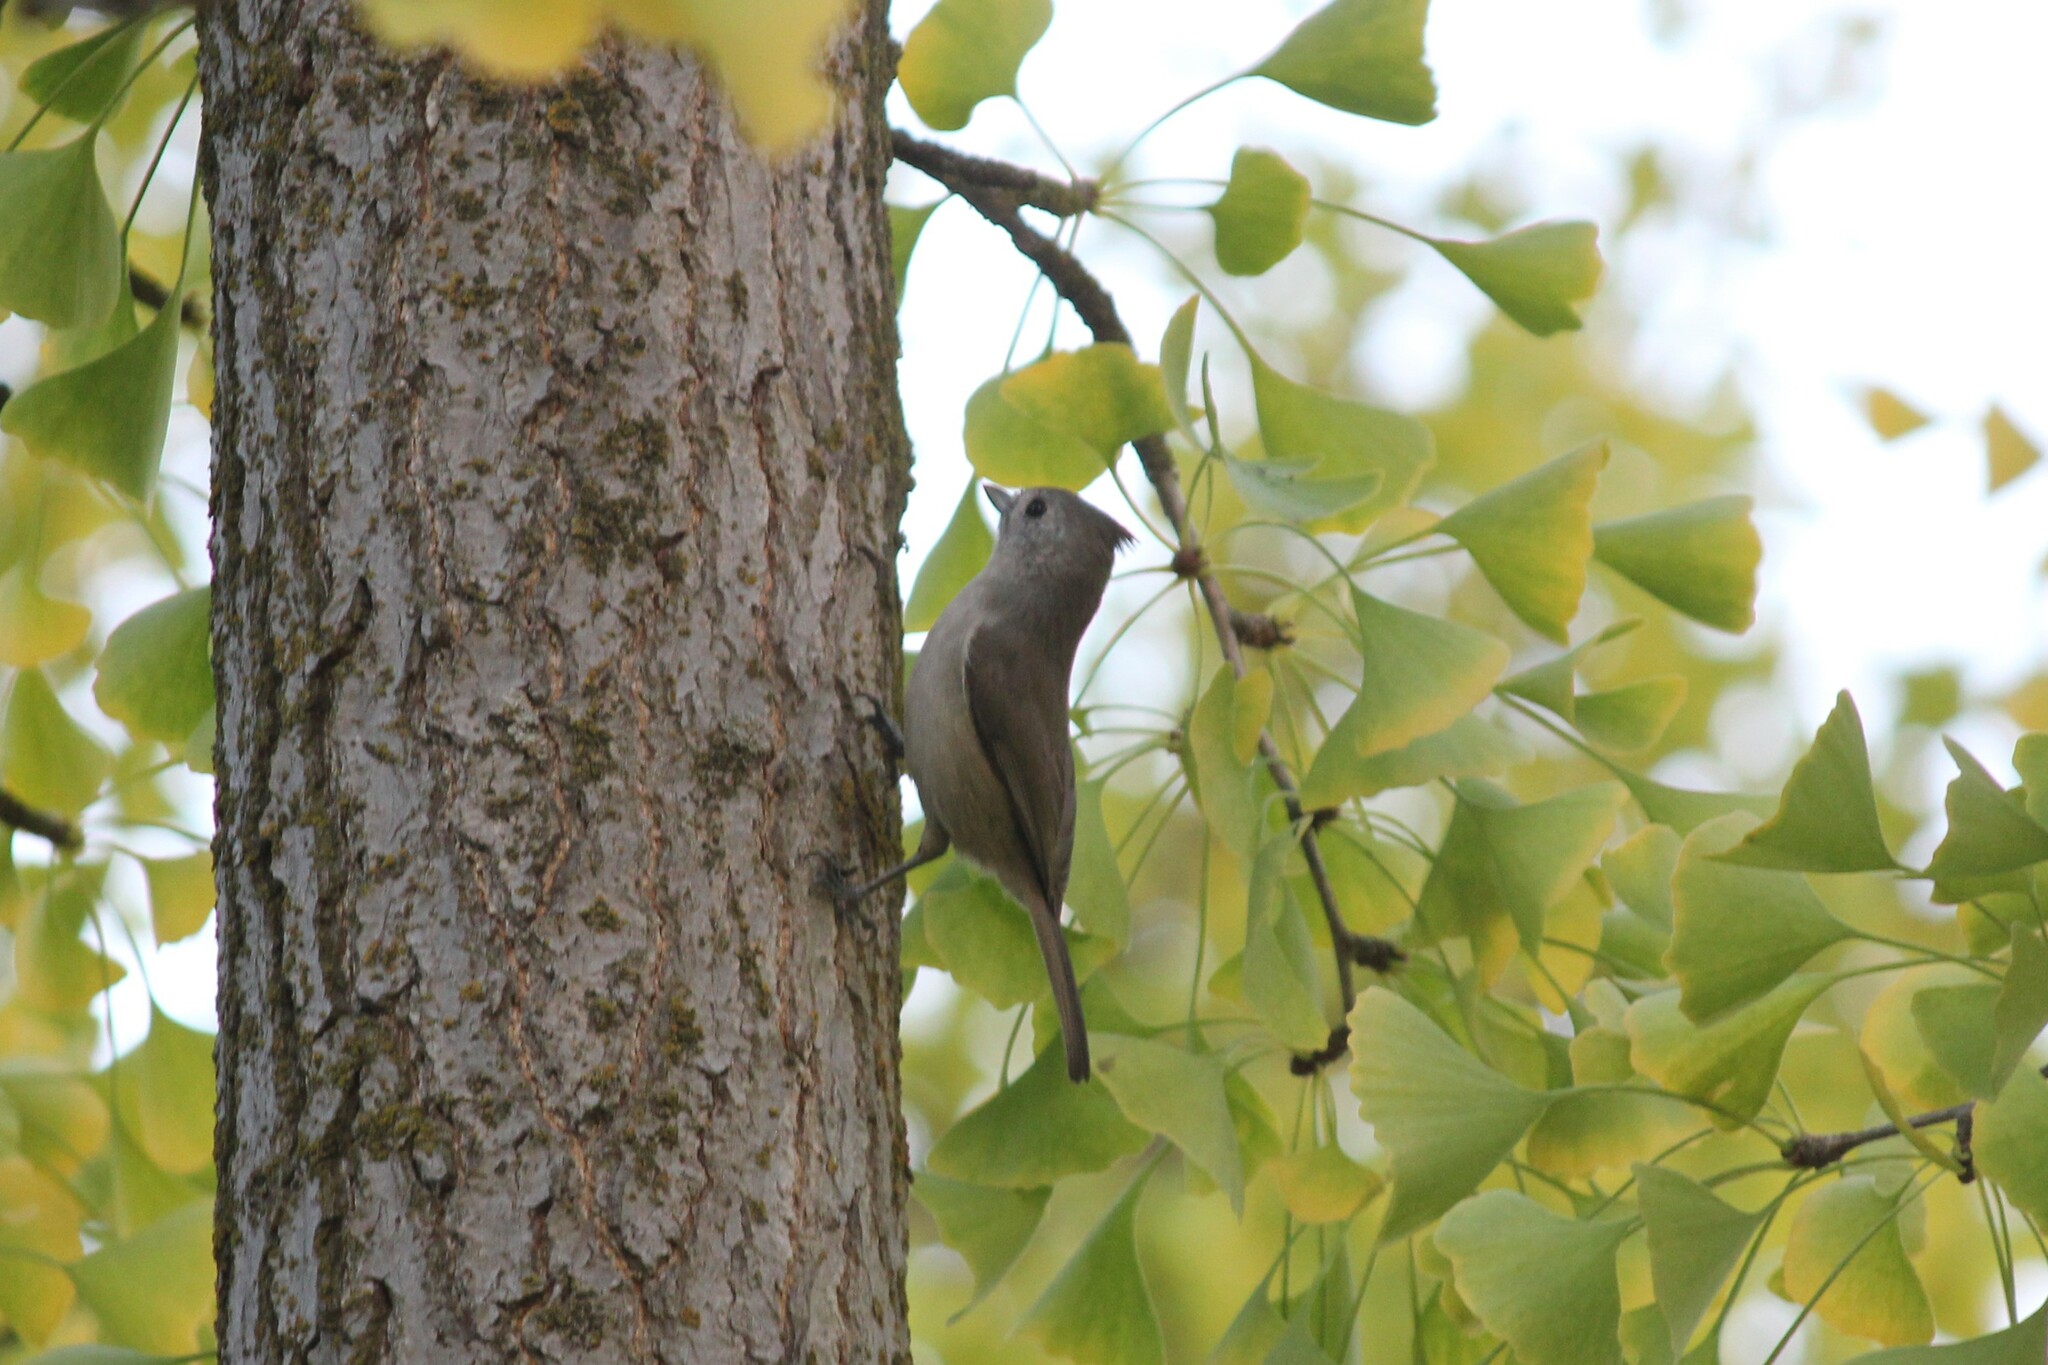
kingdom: Animalia
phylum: Chordata
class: Aves
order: Passeriformes
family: Paridae
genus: Baeolophus
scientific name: Baeolophus inornatus
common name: Oak titmouse
